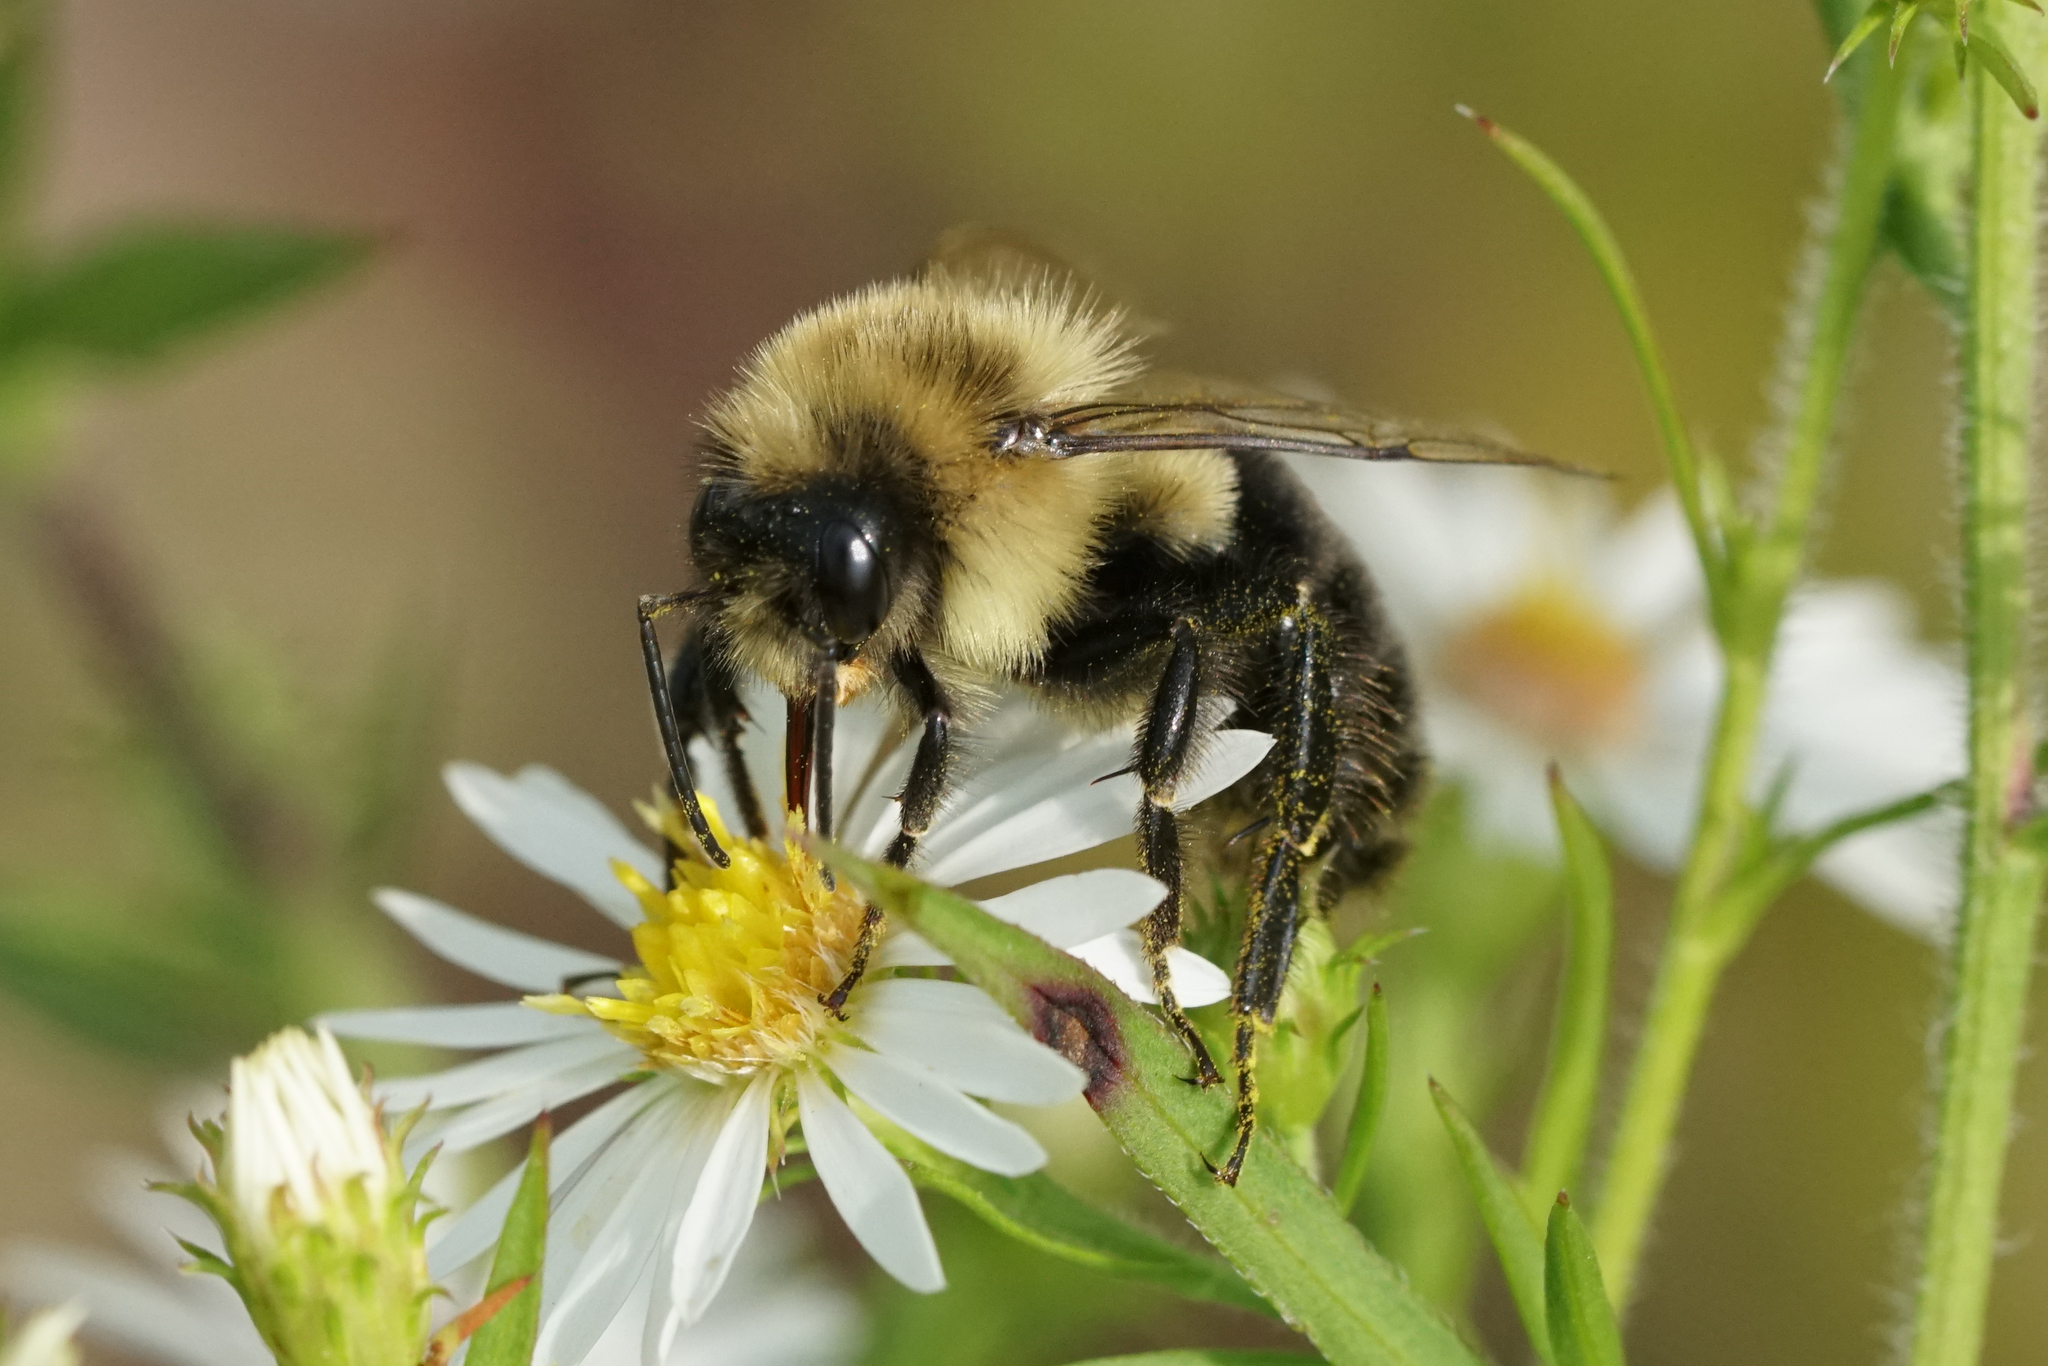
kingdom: Animalia
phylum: Arthropoda
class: Insecta
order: Hymenoptera
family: Apidae
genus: Bombus
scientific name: Bombus impatiens
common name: Common eastern bumble bee
